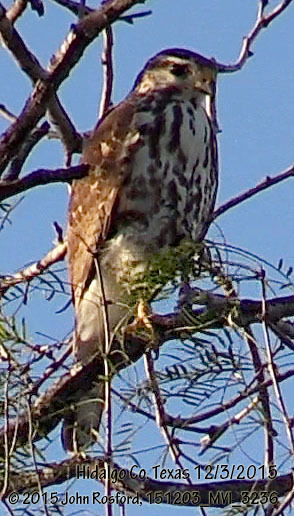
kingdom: Animalia
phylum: Chordata
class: Aves
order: Accipitriformes
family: Accipitridae
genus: Buteo
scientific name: Buteo nitidus
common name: Grey-lined hawk
